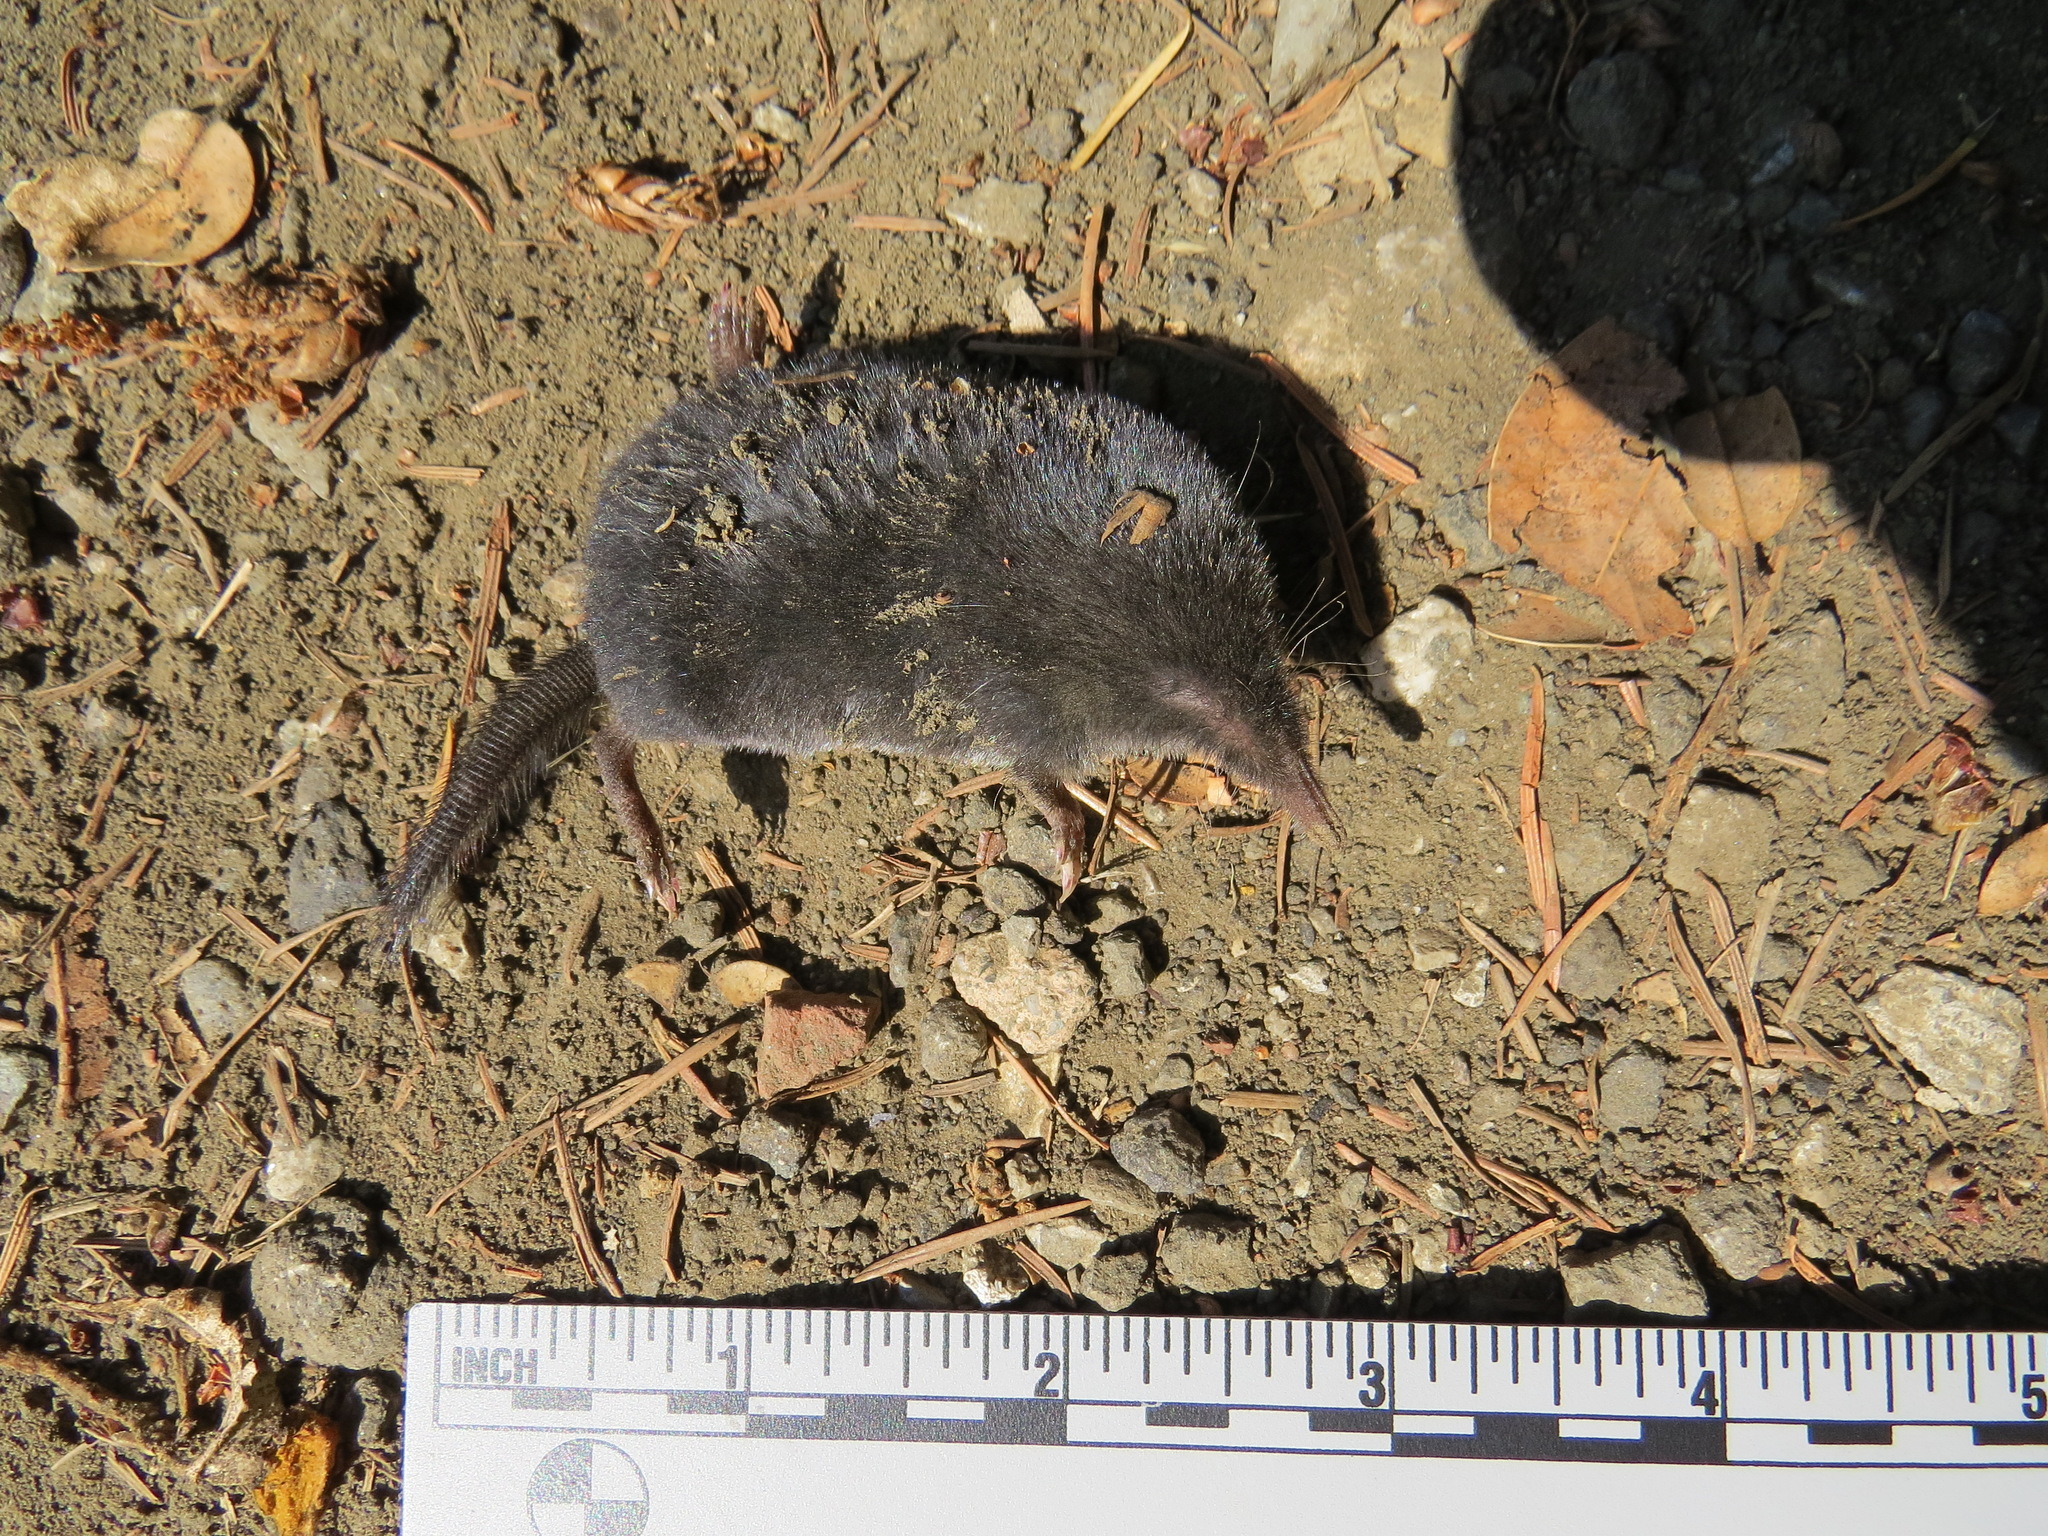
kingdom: Animalia
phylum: Chordata
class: Mammalia
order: Soricomorpha
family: Talpidae
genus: Neurotrichus
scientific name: Neurotrichus gibbsii
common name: American shrew mole
